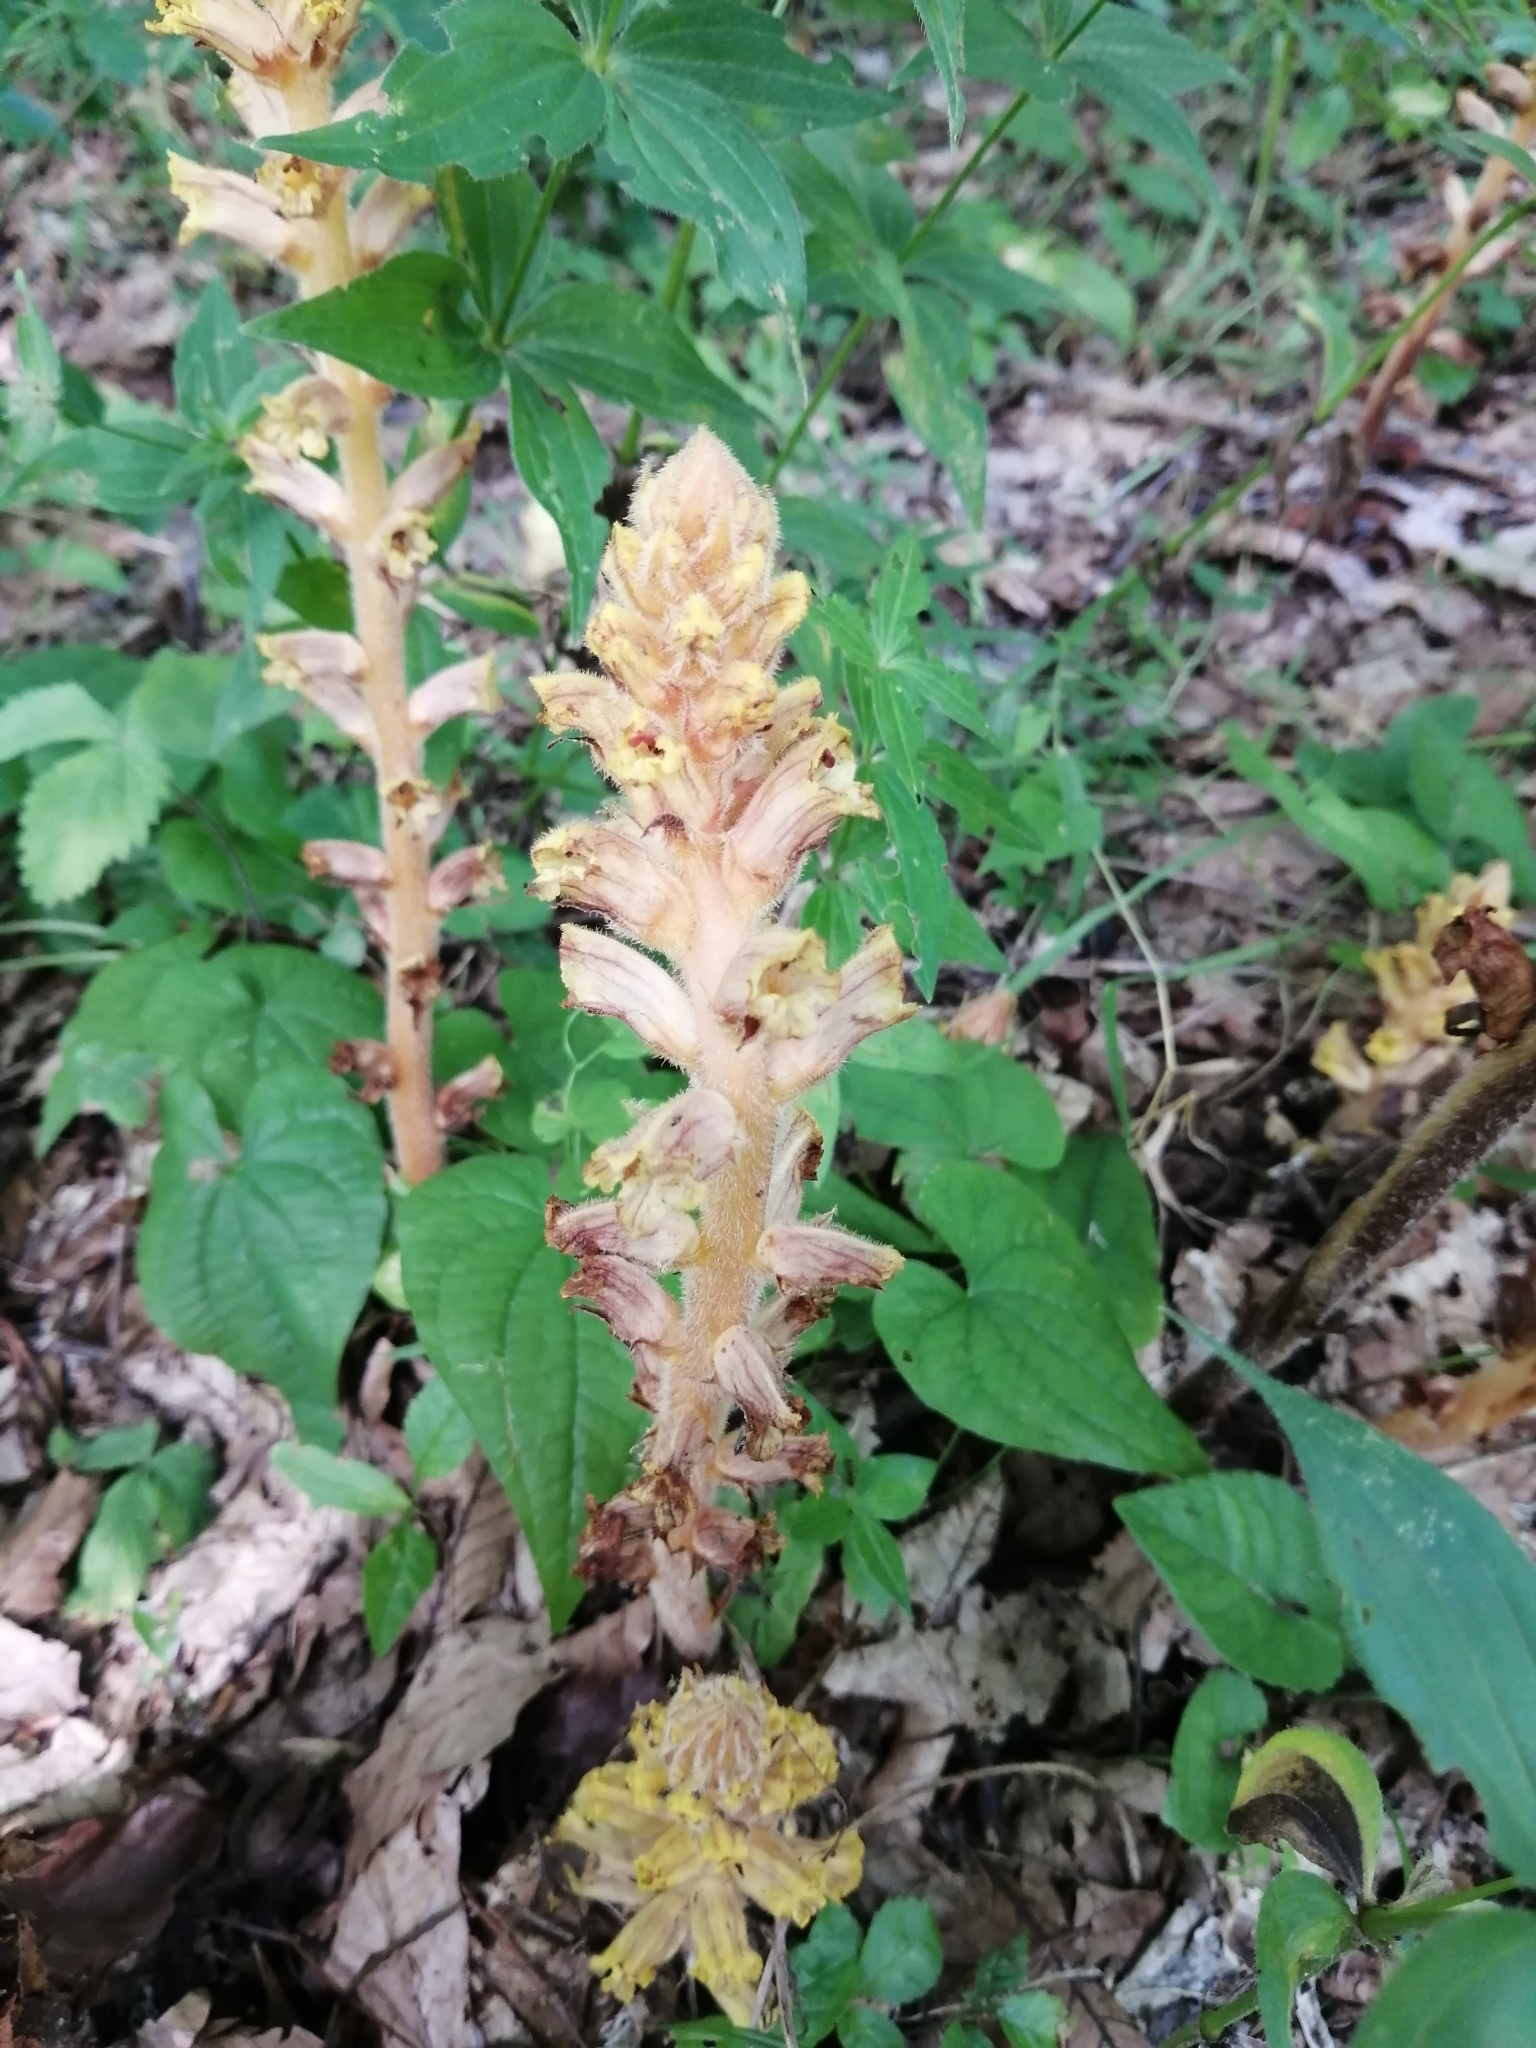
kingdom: Plantae
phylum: Tracheophyta
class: Magnoliopsida
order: Lamiales
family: Orobanchaceae
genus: Orobanche
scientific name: Orobanche laxissima
